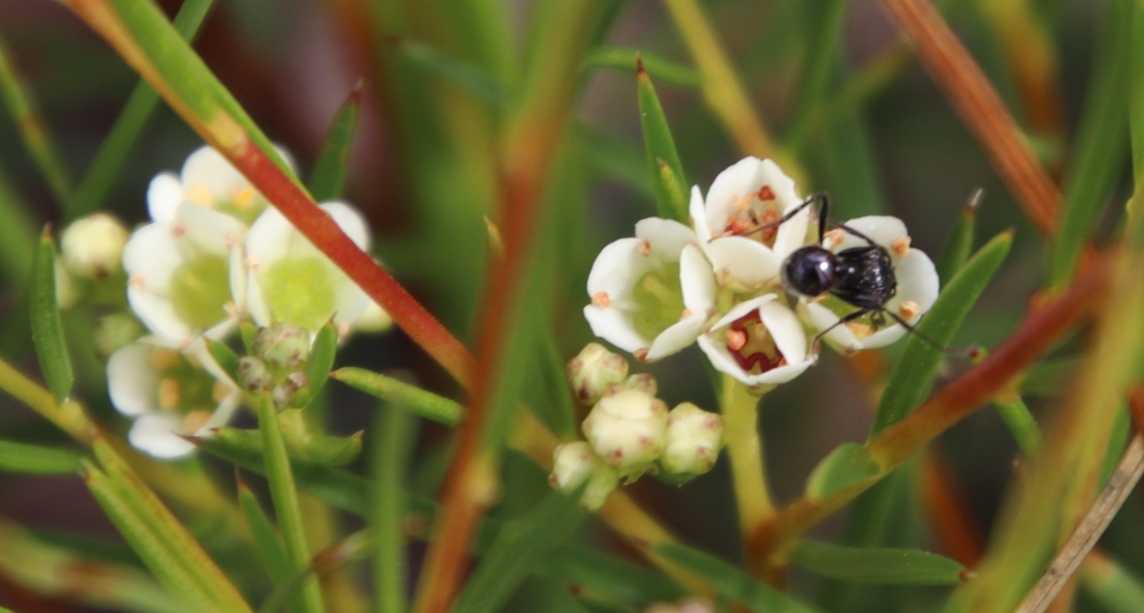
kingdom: Animalia
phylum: Arthropoda
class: Insecta
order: Hymenoptera
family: Formicidae
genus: Myrmicaria
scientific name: Myrmicaria nigra
